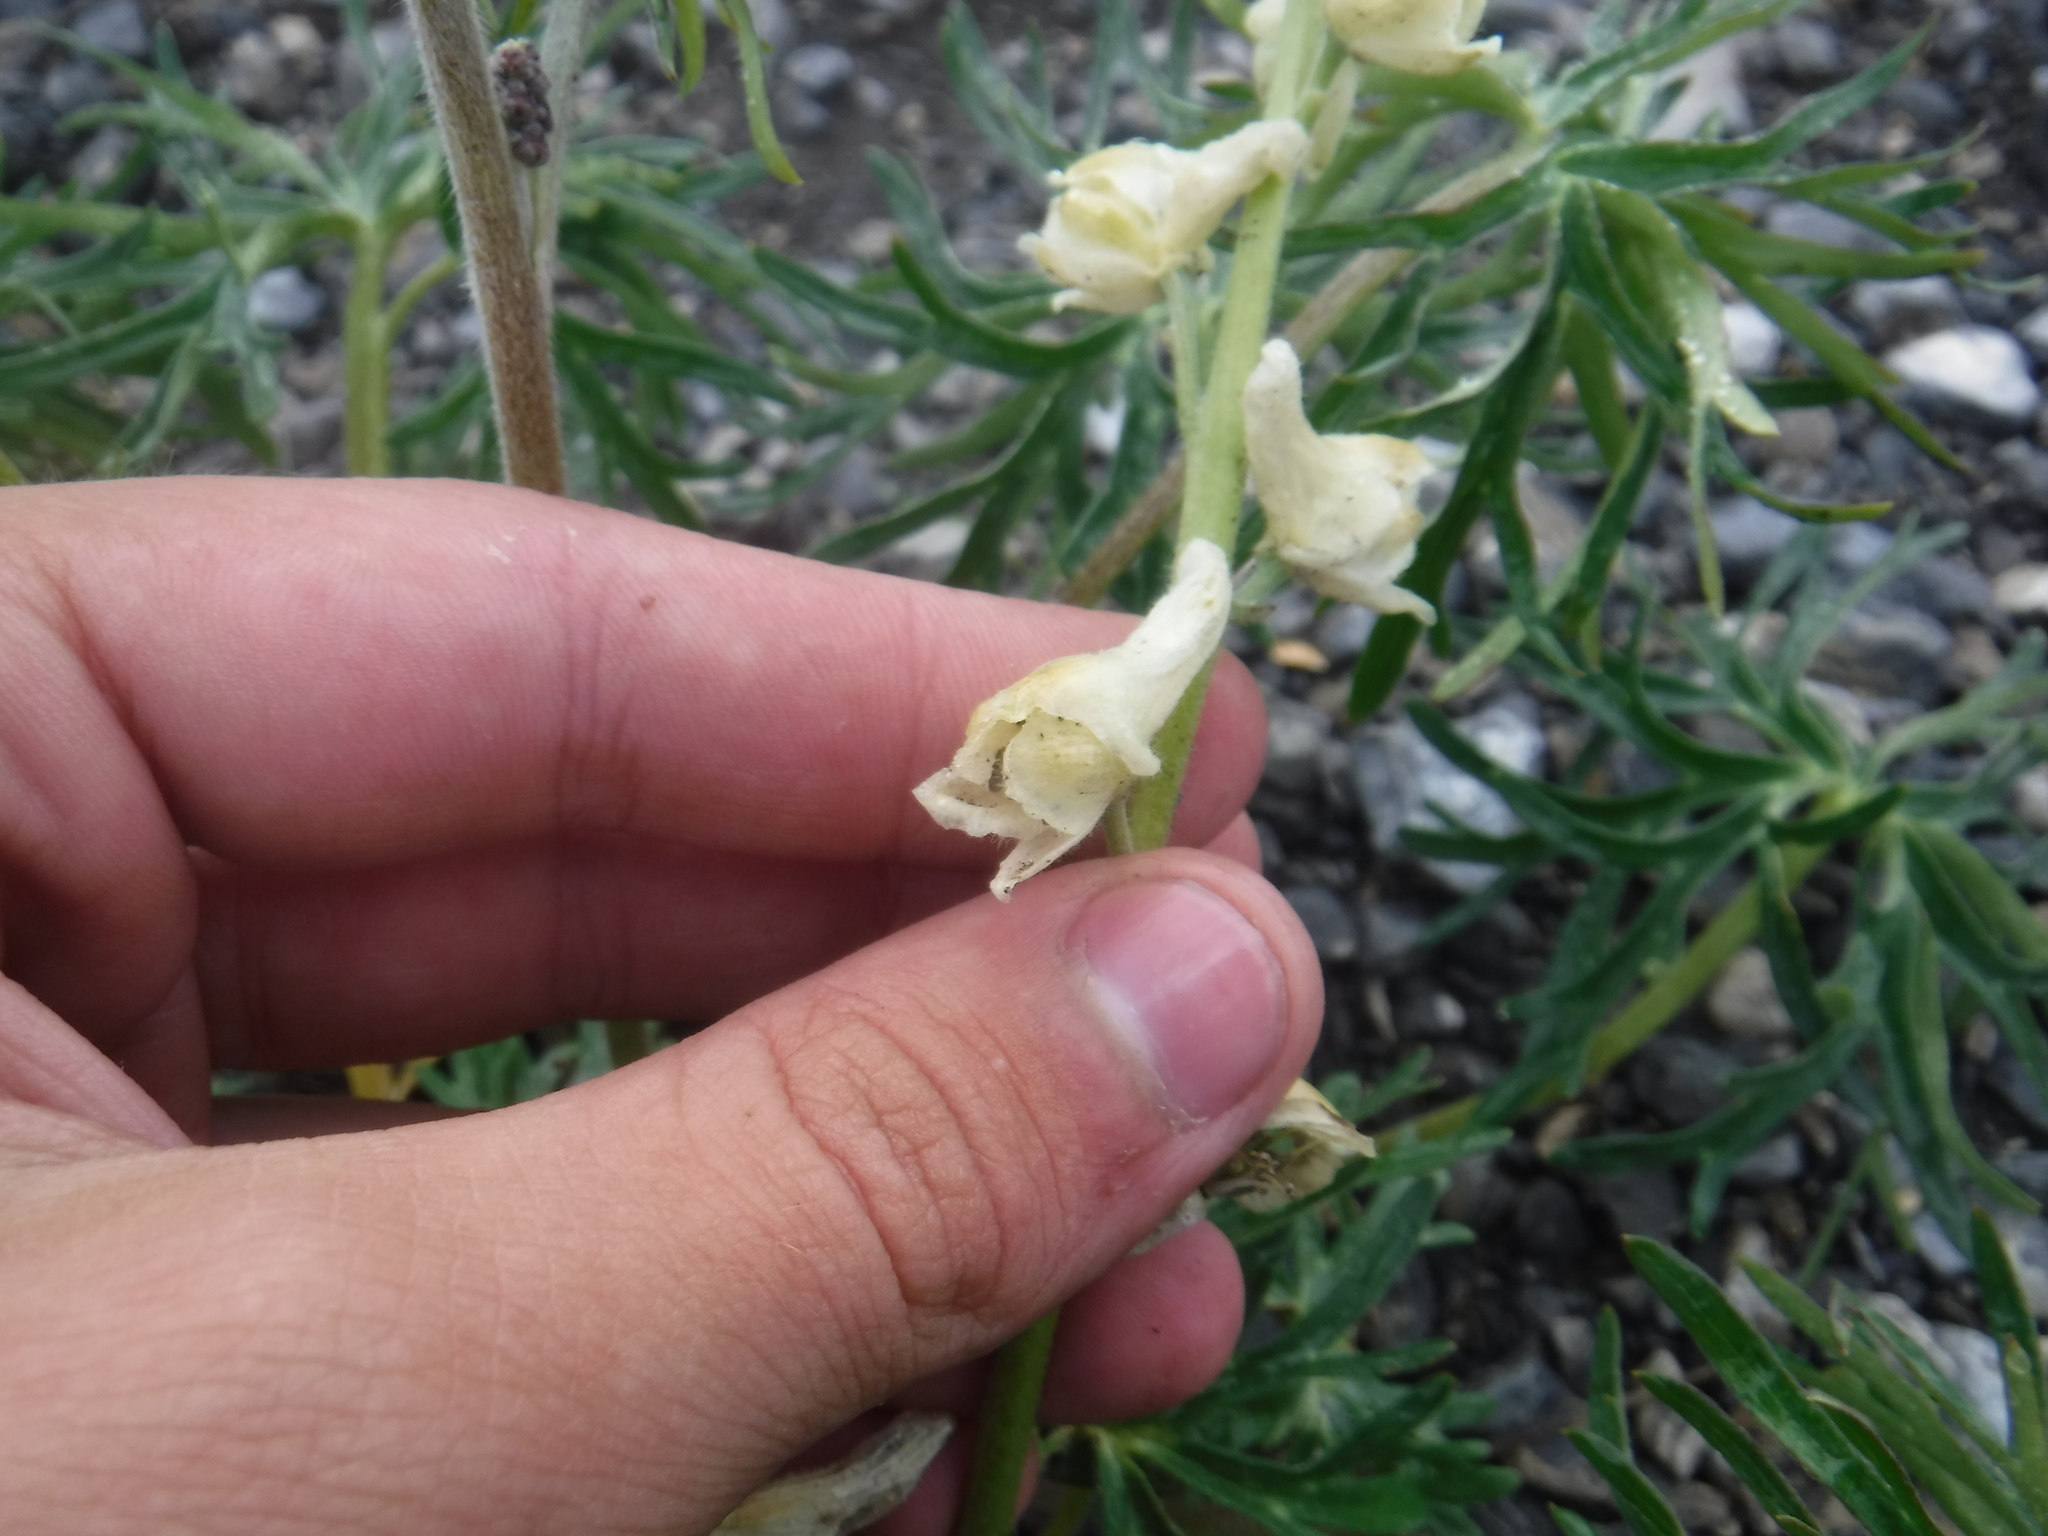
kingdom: Plantae
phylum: Tracheophyta
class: Magnoliopsida
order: Ranunculales
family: Ranunculaceae
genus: Aconitum
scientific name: Aconitum barbatum
